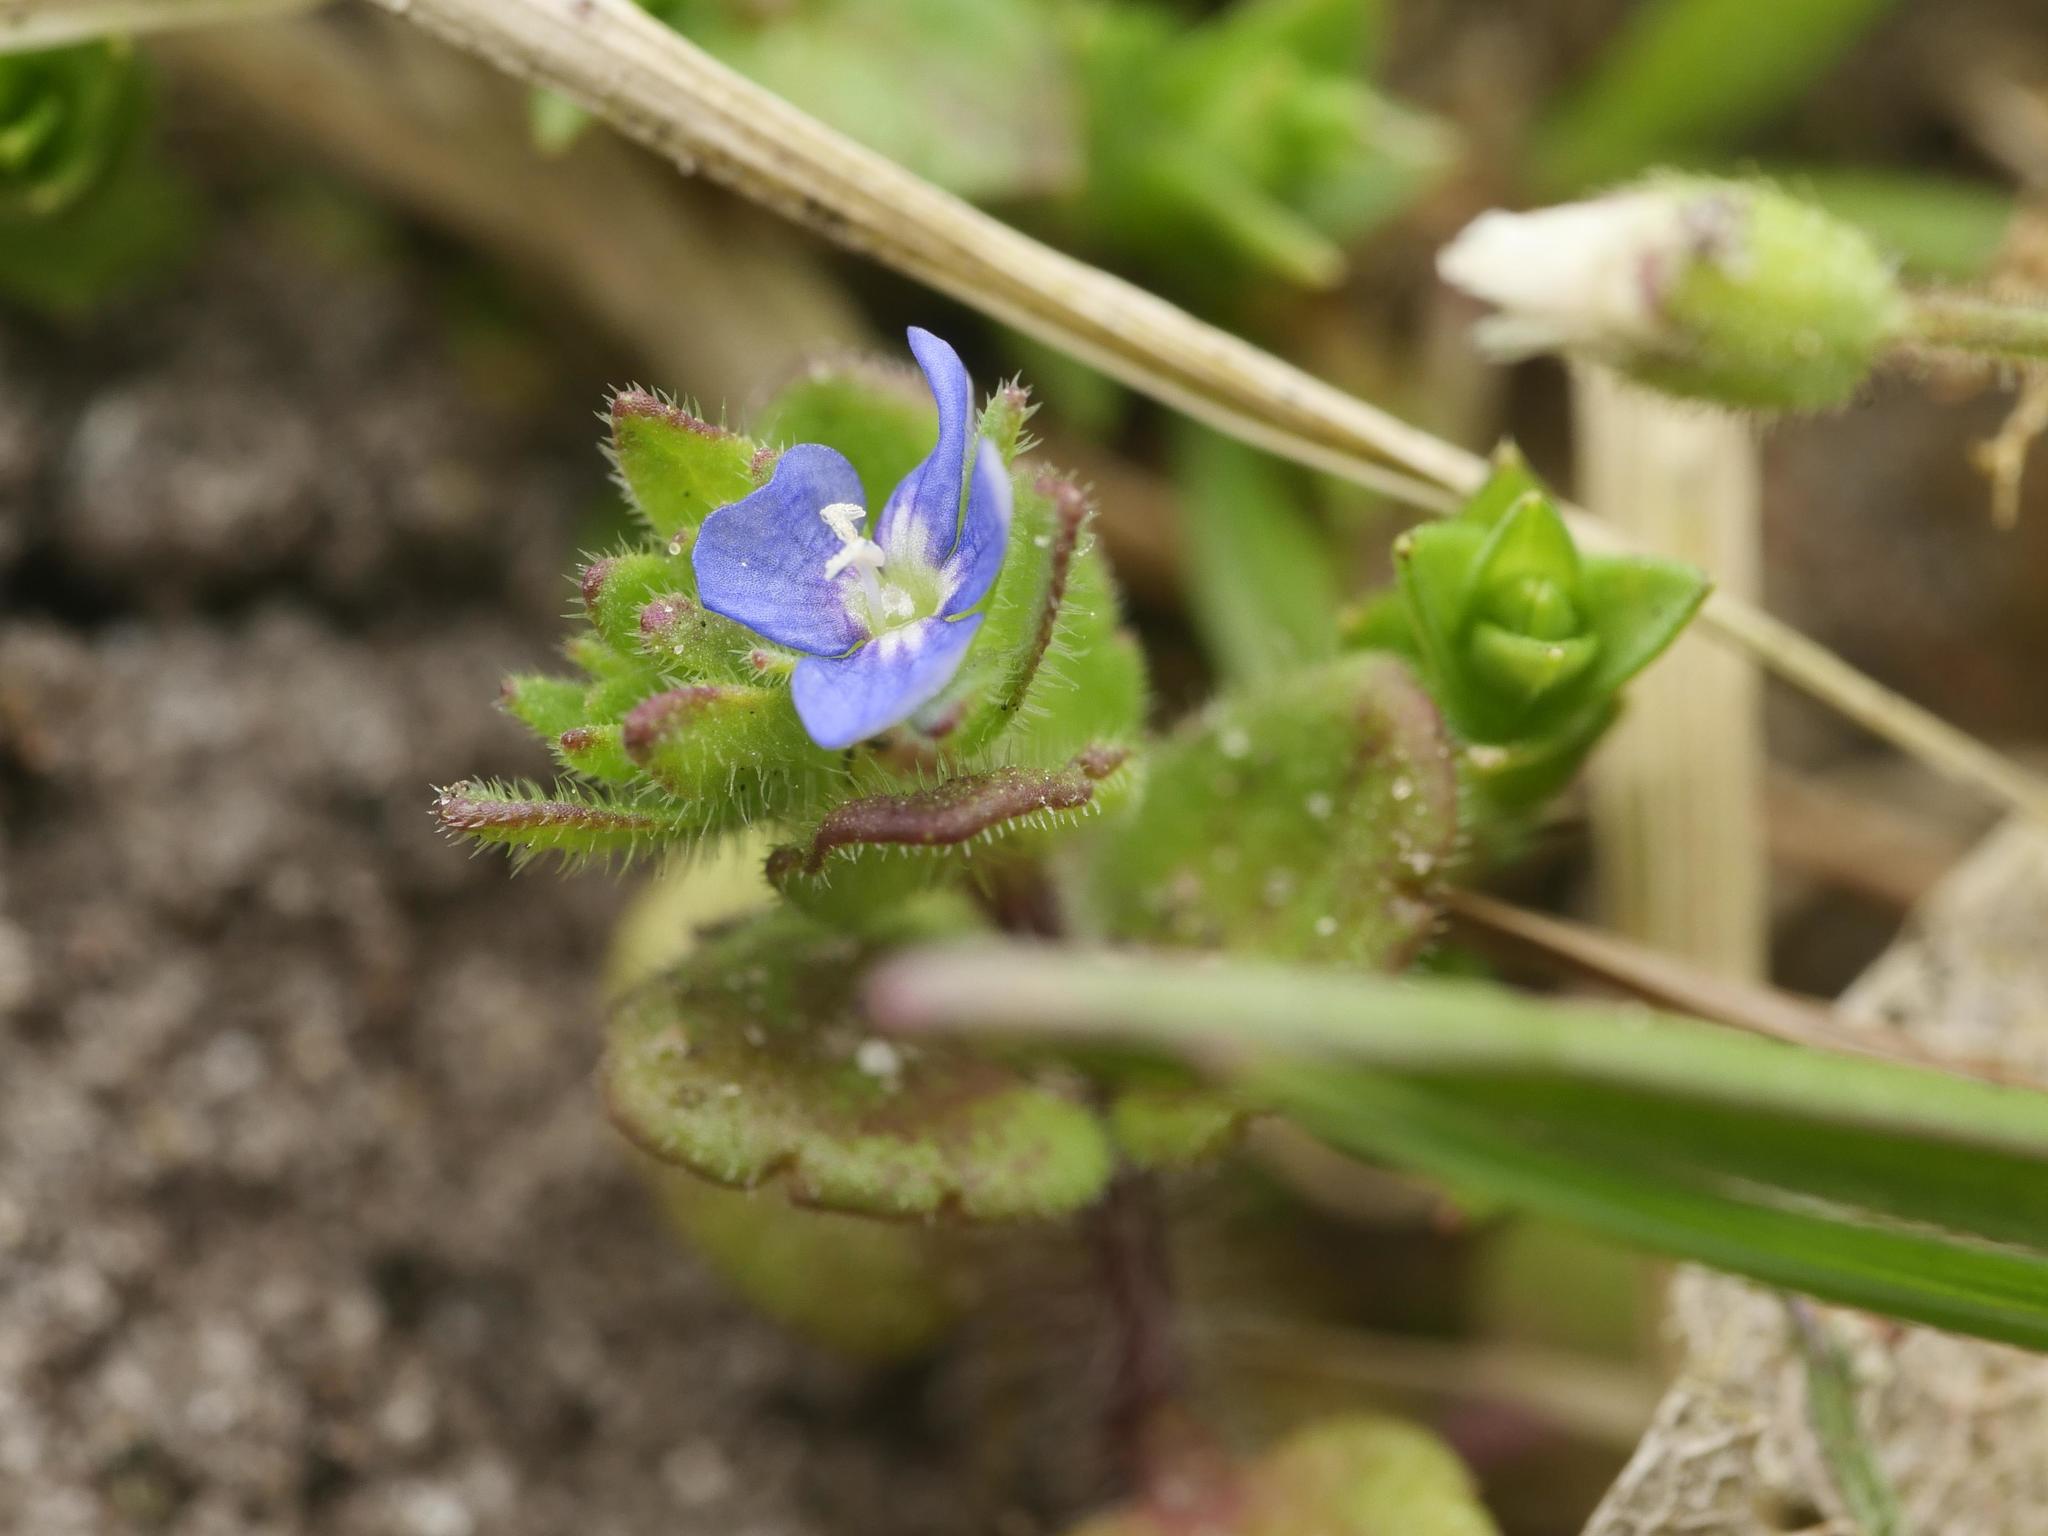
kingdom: Plantae
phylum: Tracheophyta
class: Magnoliopsida
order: Lamiales
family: Plantaginaceae
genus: Veronica
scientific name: Veronica arvensis
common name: Corn speedwell
